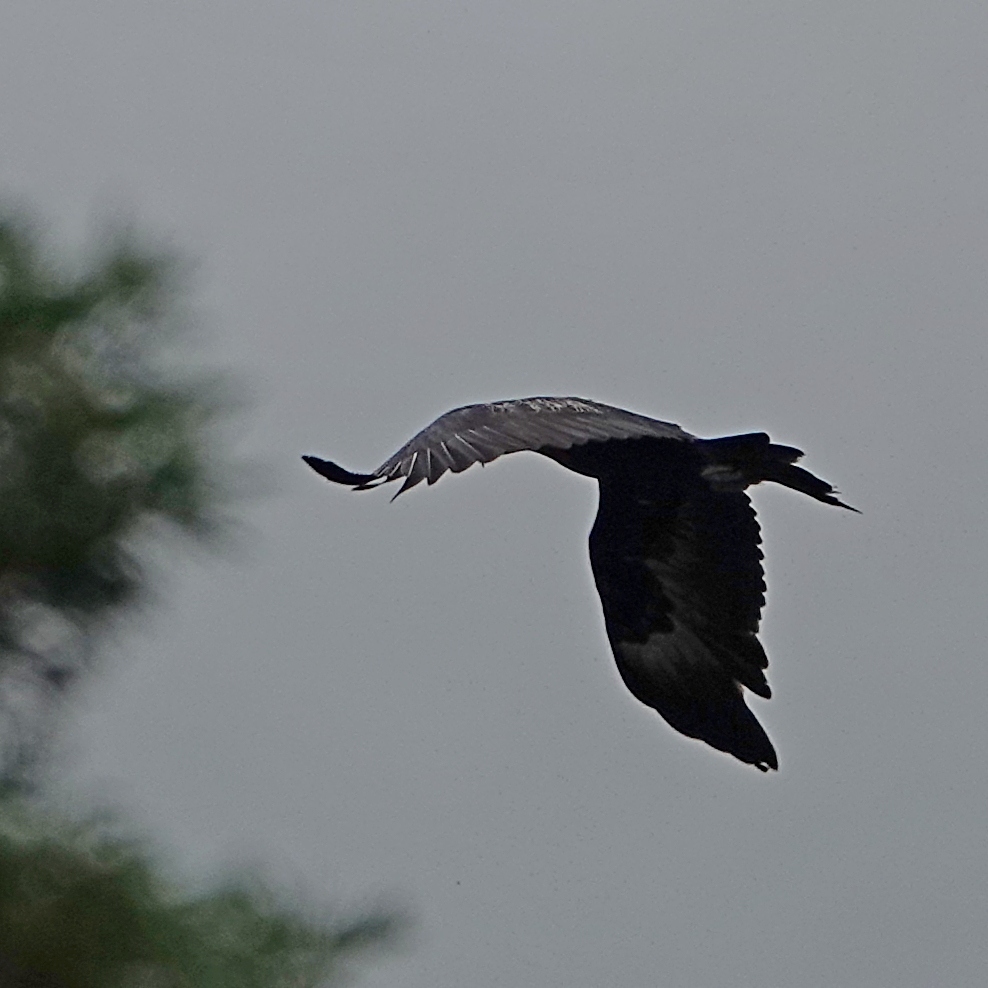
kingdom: Animalia
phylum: Chordata
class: Aves
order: Accipitriformes
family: Accipitridae
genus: Aquila
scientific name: Aquila audax
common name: Wedge-tailed eagle
